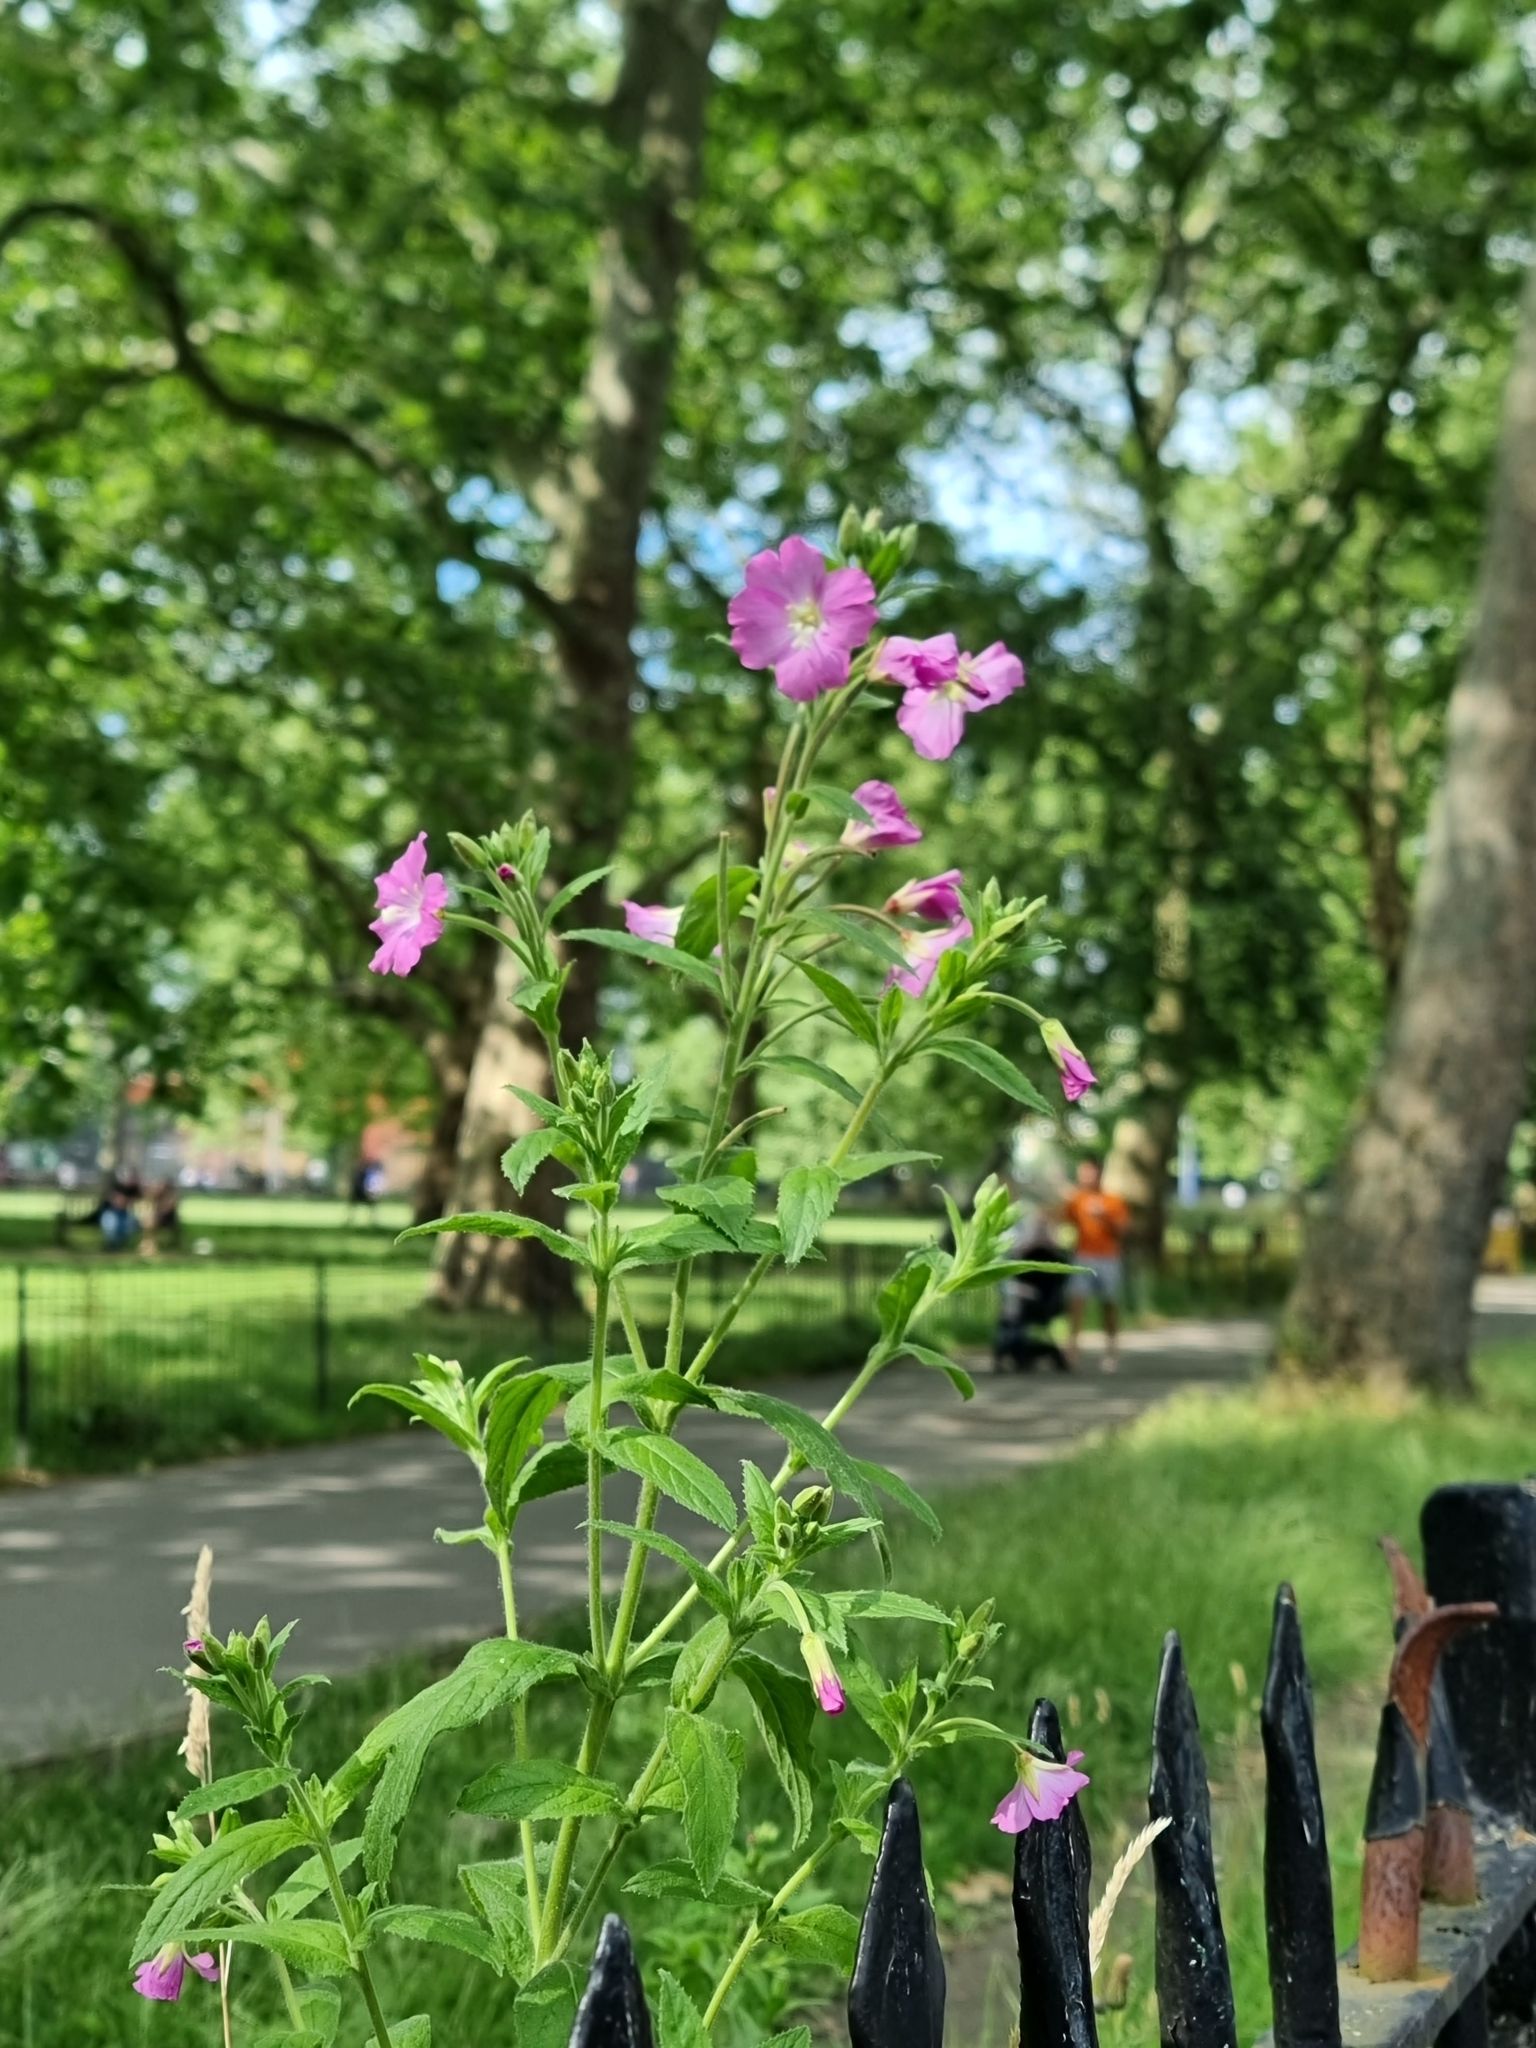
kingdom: Plantae
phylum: Tracheophyta
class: Magnoliopsida
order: Myrtales
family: Onagraceae
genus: Epilobium
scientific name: Epilobium hirsutum
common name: Great willowherb
